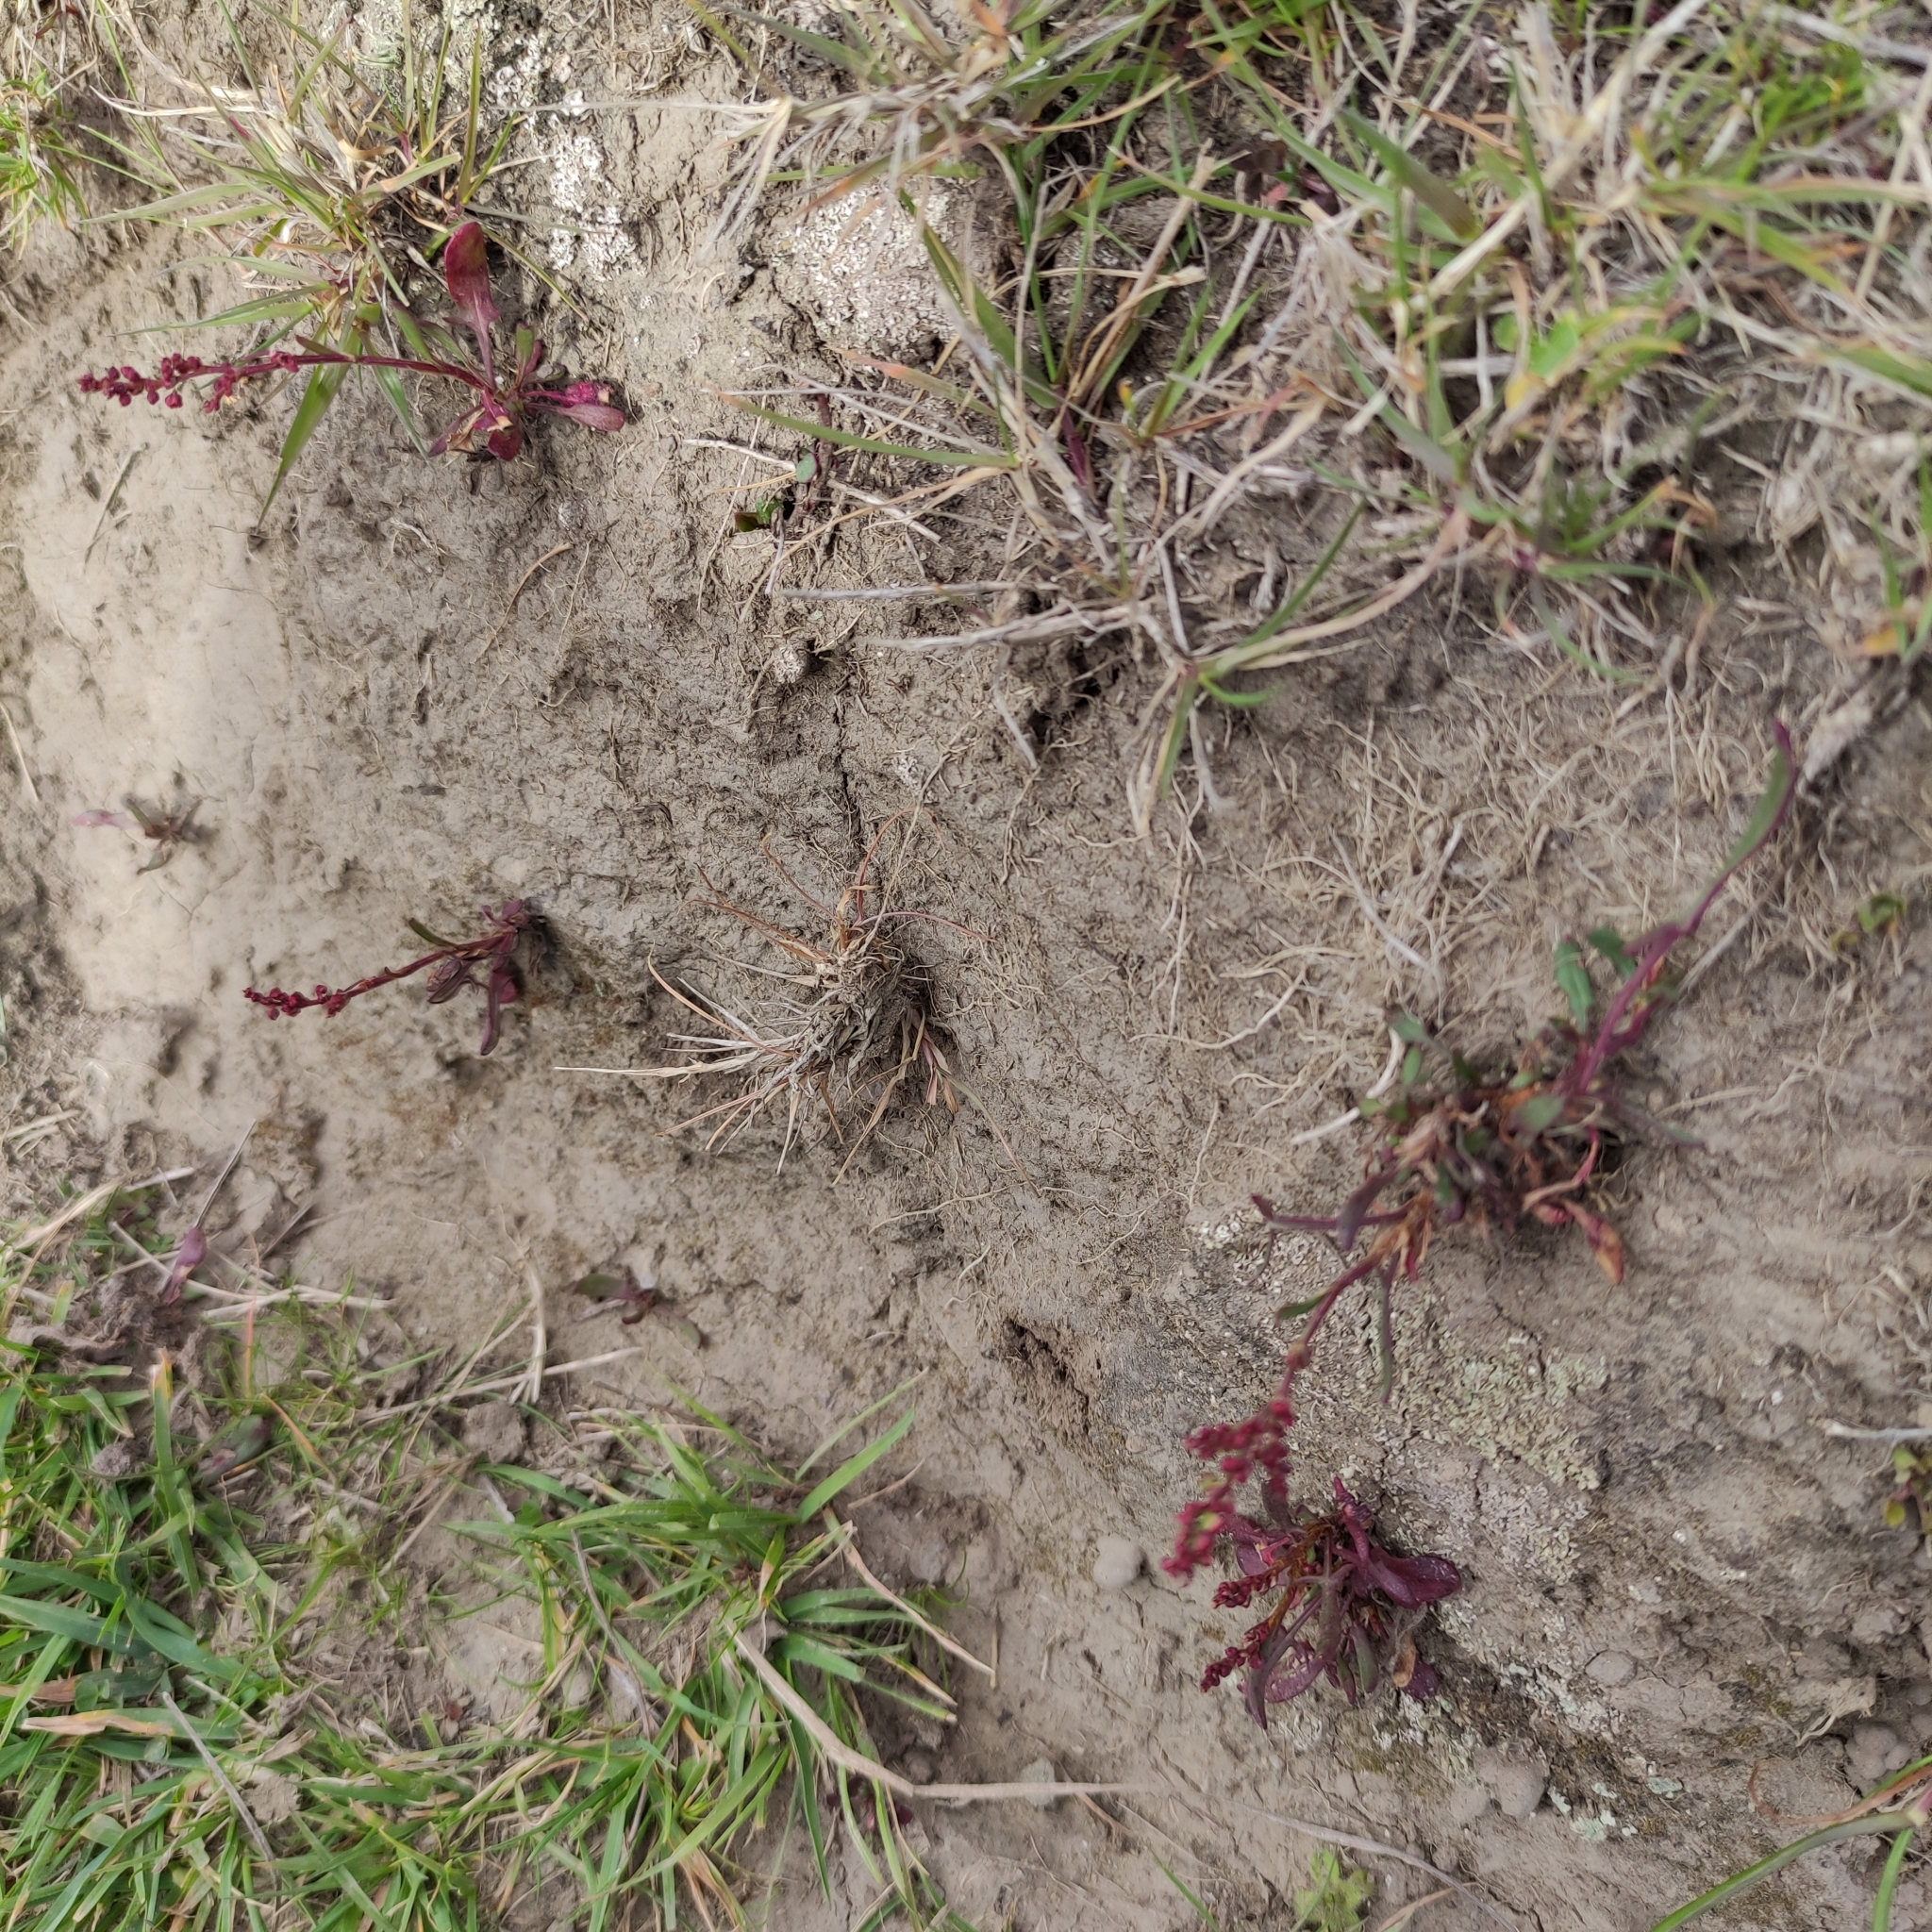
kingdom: Plantae
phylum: Tracheophyta
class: Magnoliopsida
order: Caryophyllales
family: Polygonaceae
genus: Rumex
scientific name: Rumex acetosella
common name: Common sheep sorrel
